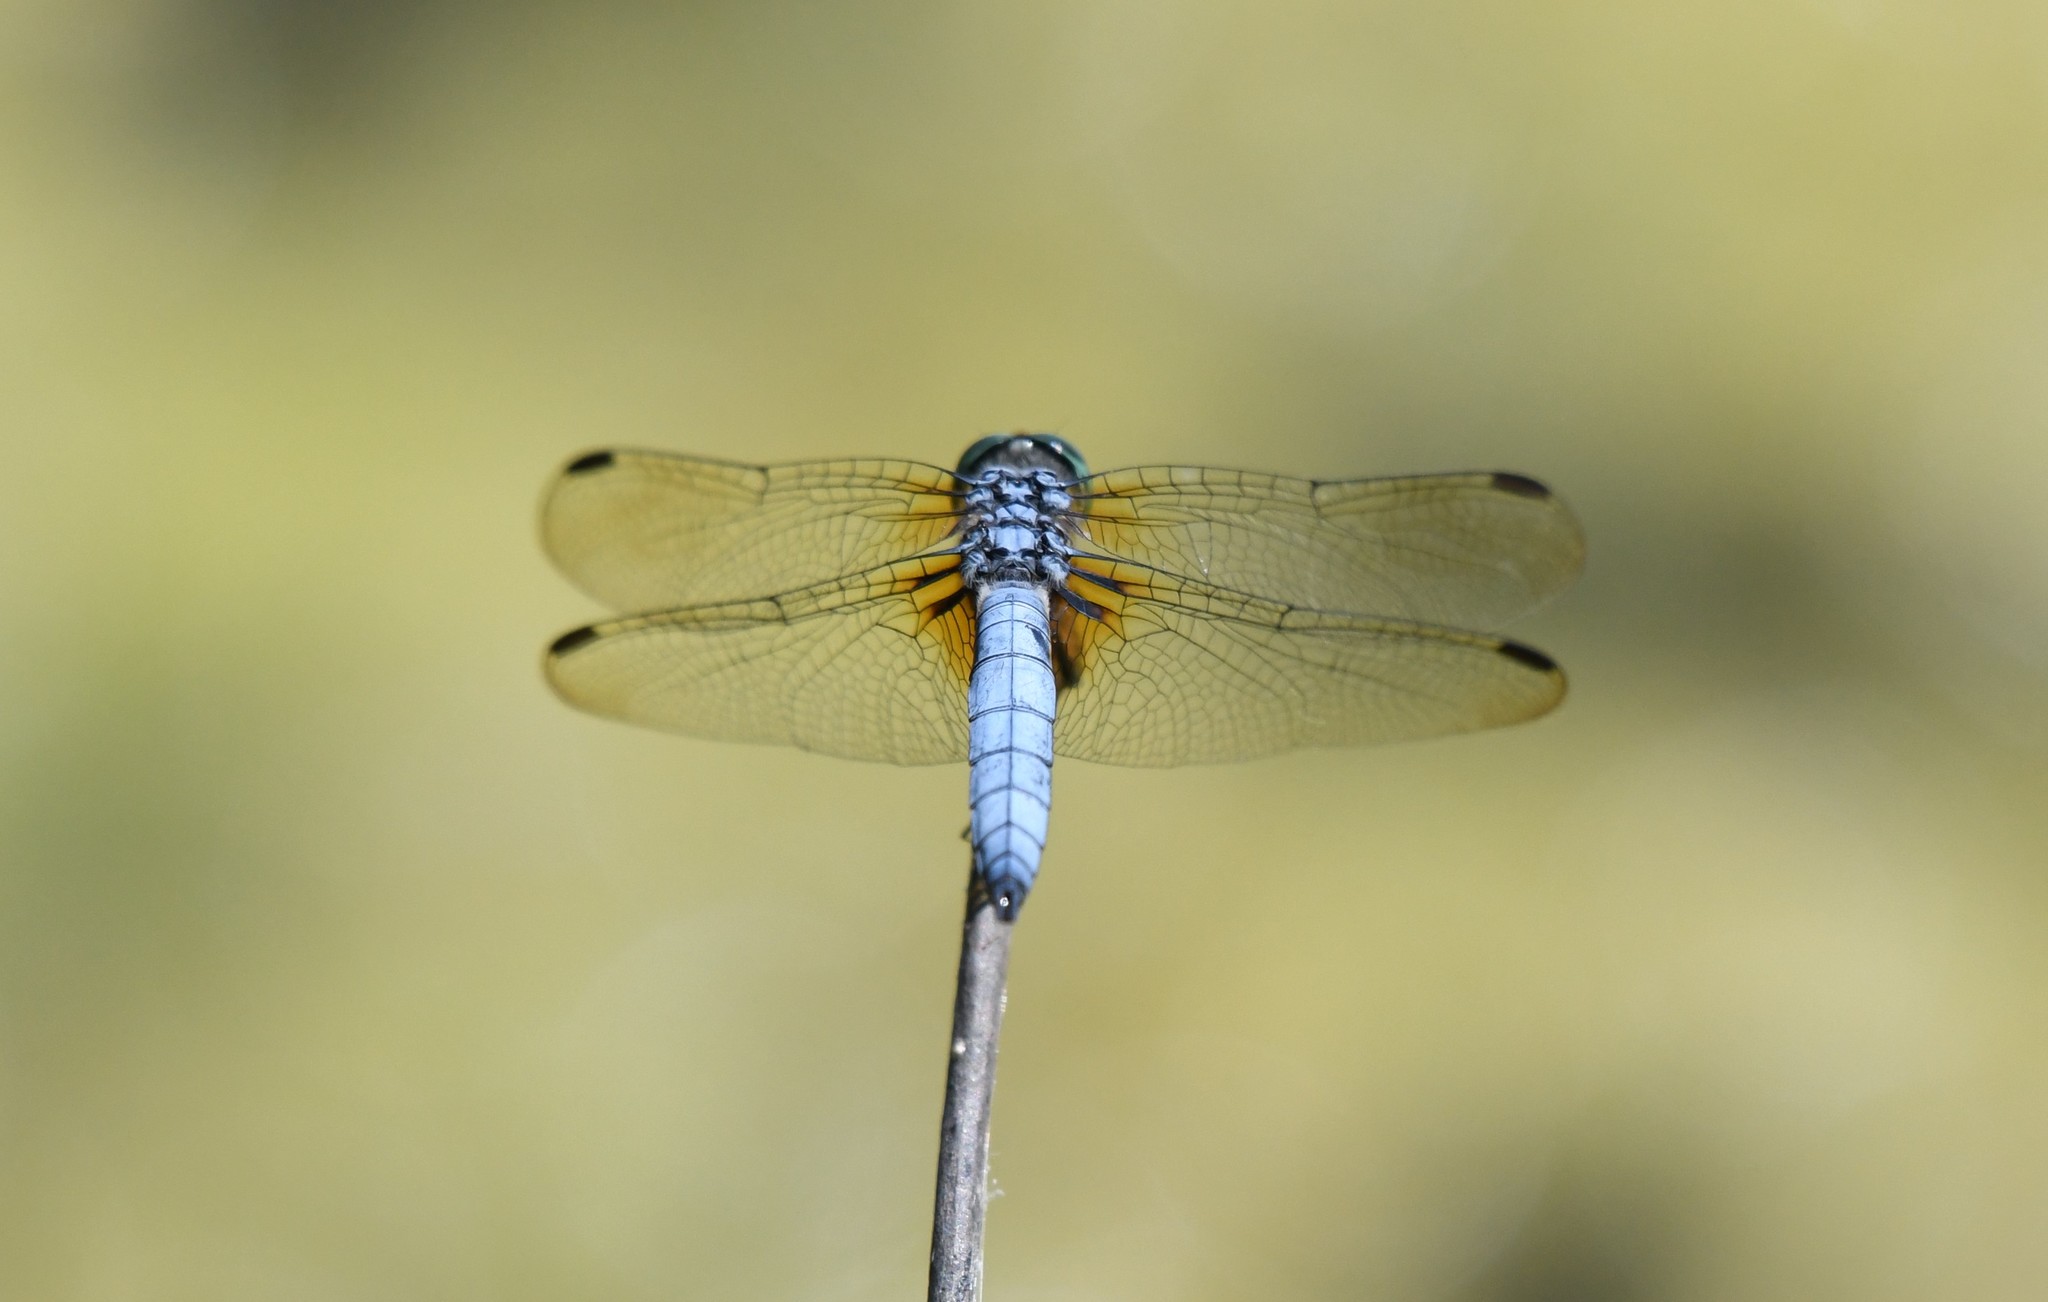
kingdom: Animalia
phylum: Arthropoda
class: Insecta
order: Odonata
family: Libellulidae
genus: Pachydiplax
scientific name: Pachydiplax longipennis
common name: Blue dasher
